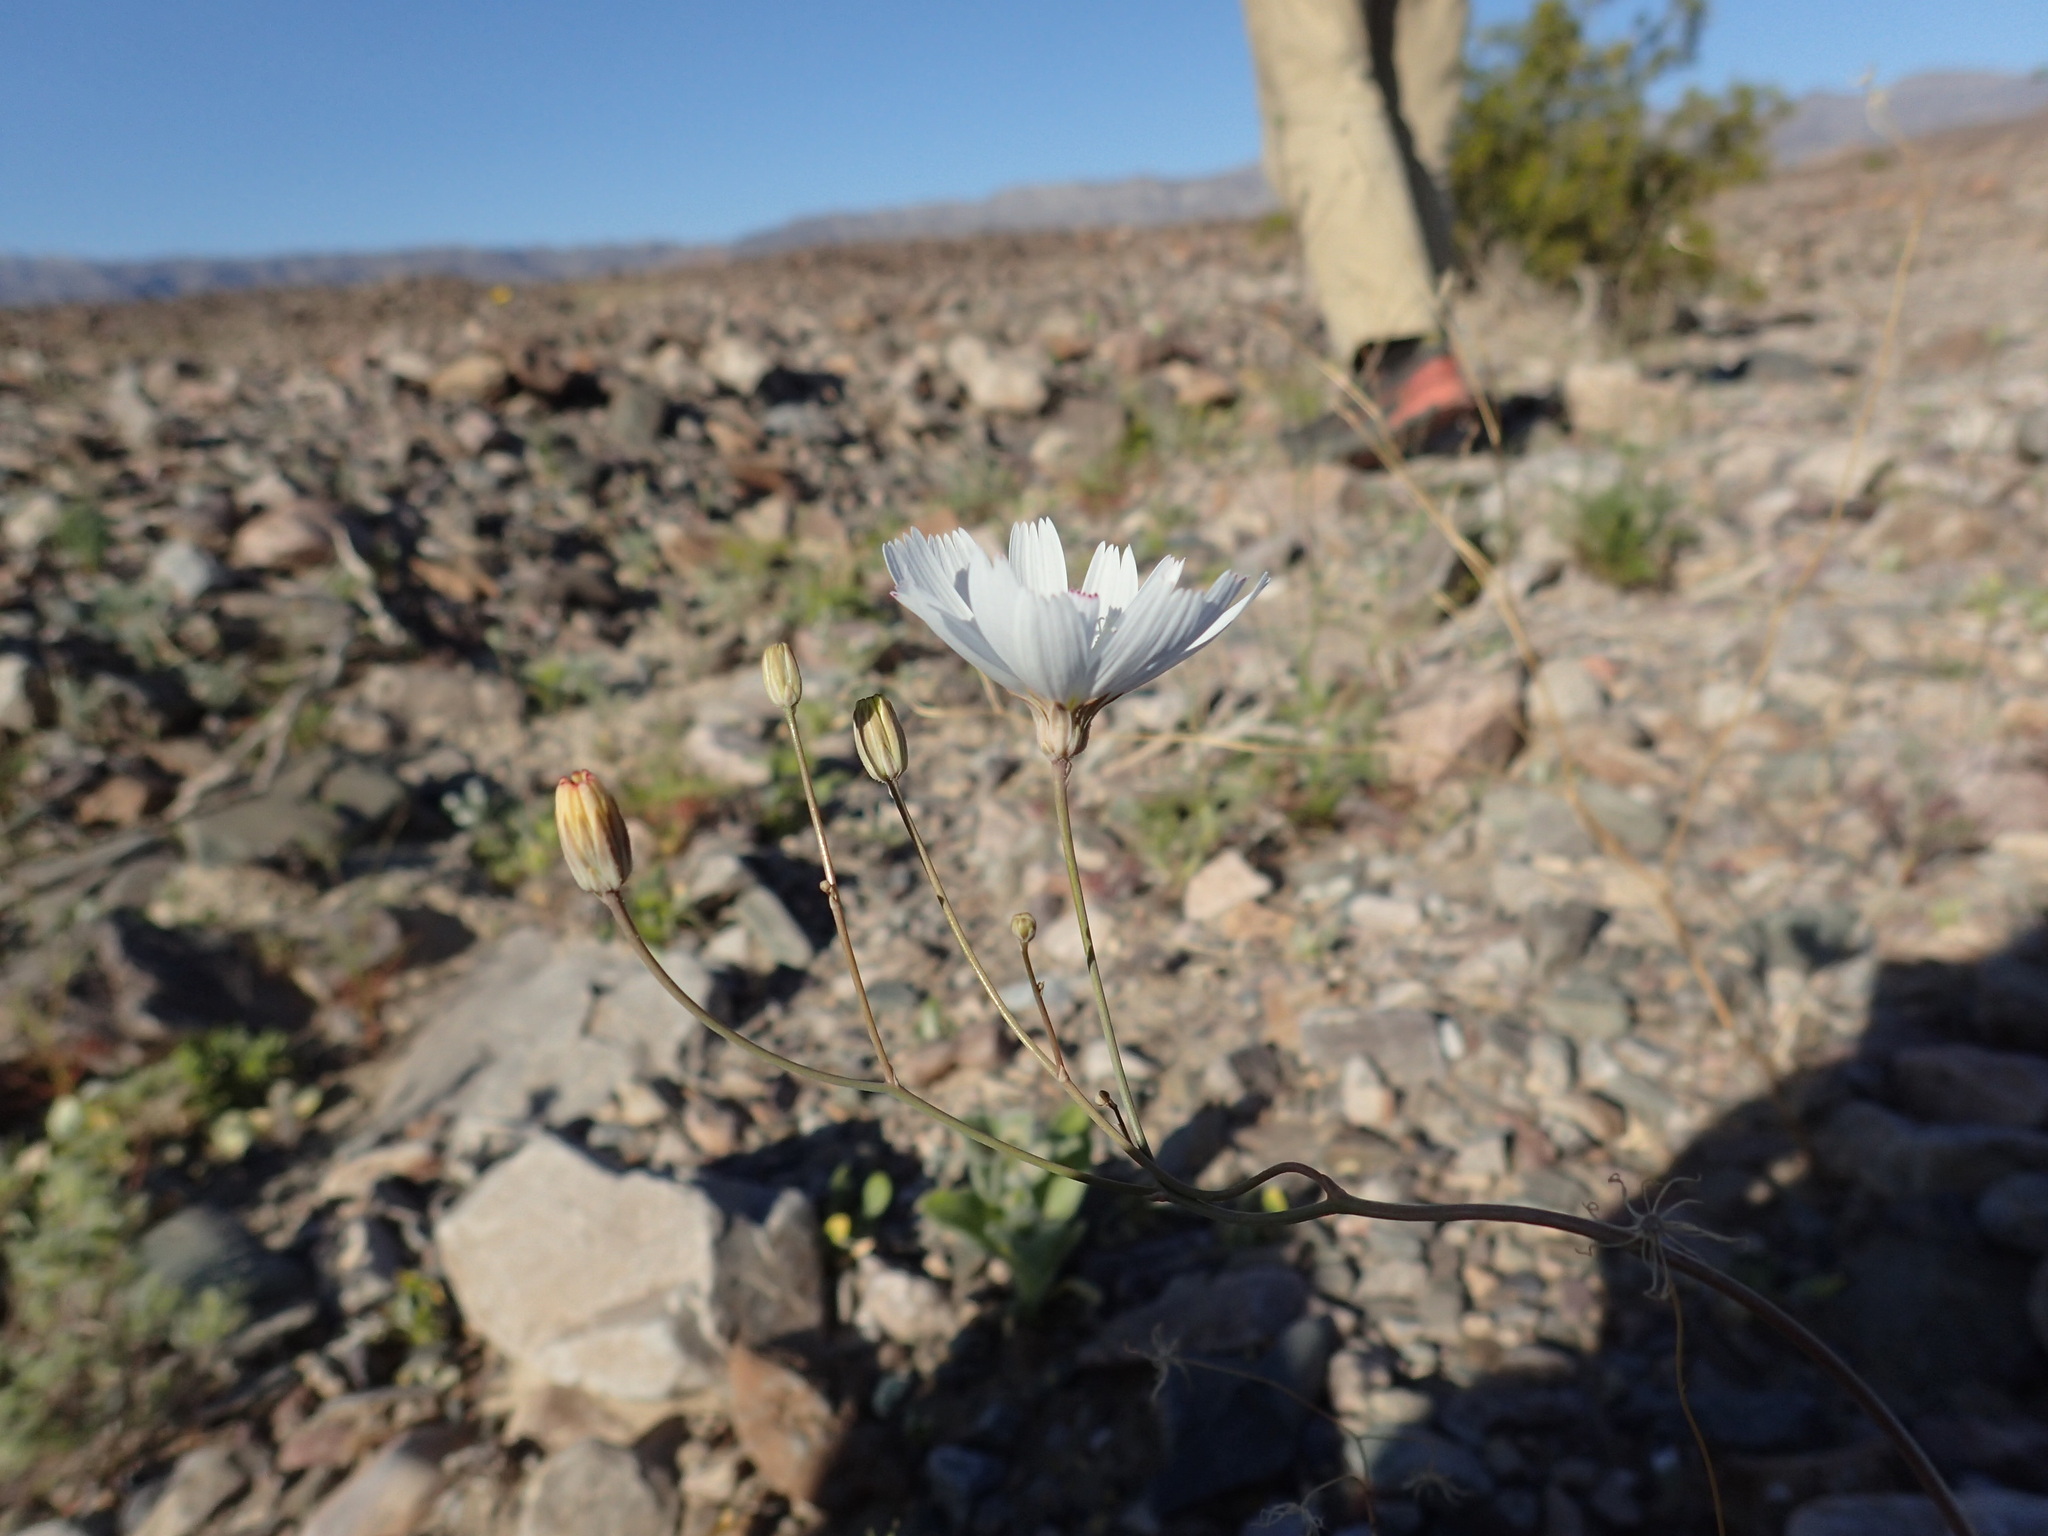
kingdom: Plantae
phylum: Tracheophyta
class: Magnoliopsida
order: Asterales
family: Asteraceae
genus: Atrichoseris
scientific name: Atrichoseris platyphylla
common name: Tobaccoweed
